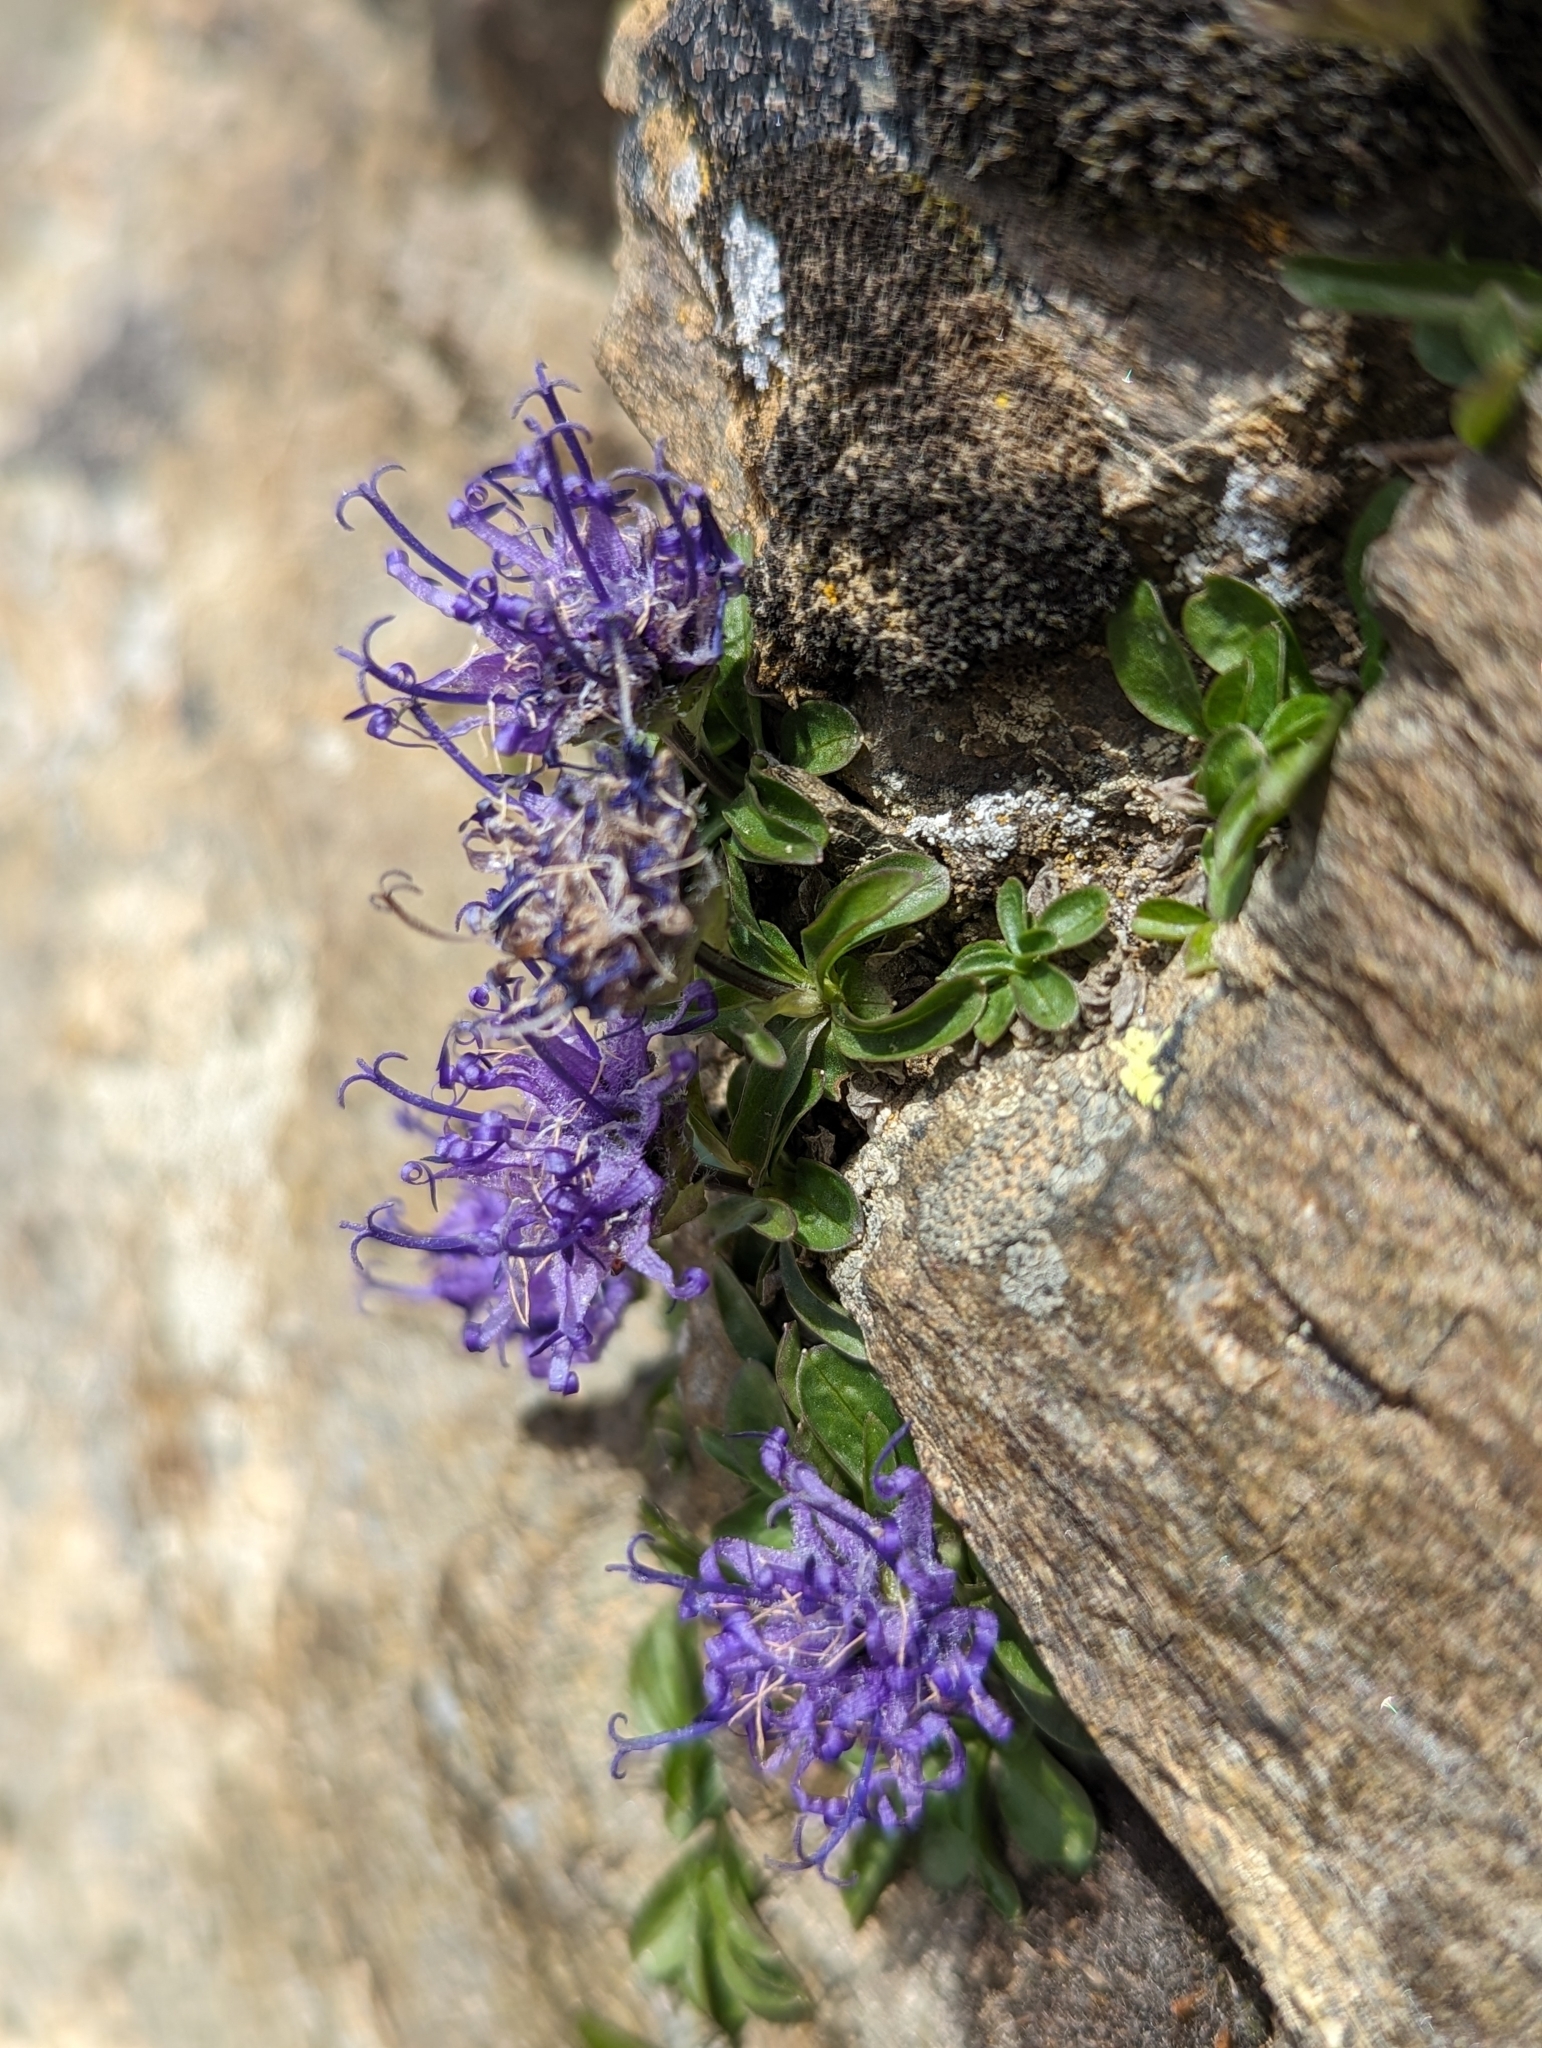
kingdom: Plantae
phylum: Tracheophyta
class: Magnoliopsida
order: Asterales
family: Campanulaceae
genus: Phyteuma
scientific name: Phyteuma globulariifolium
